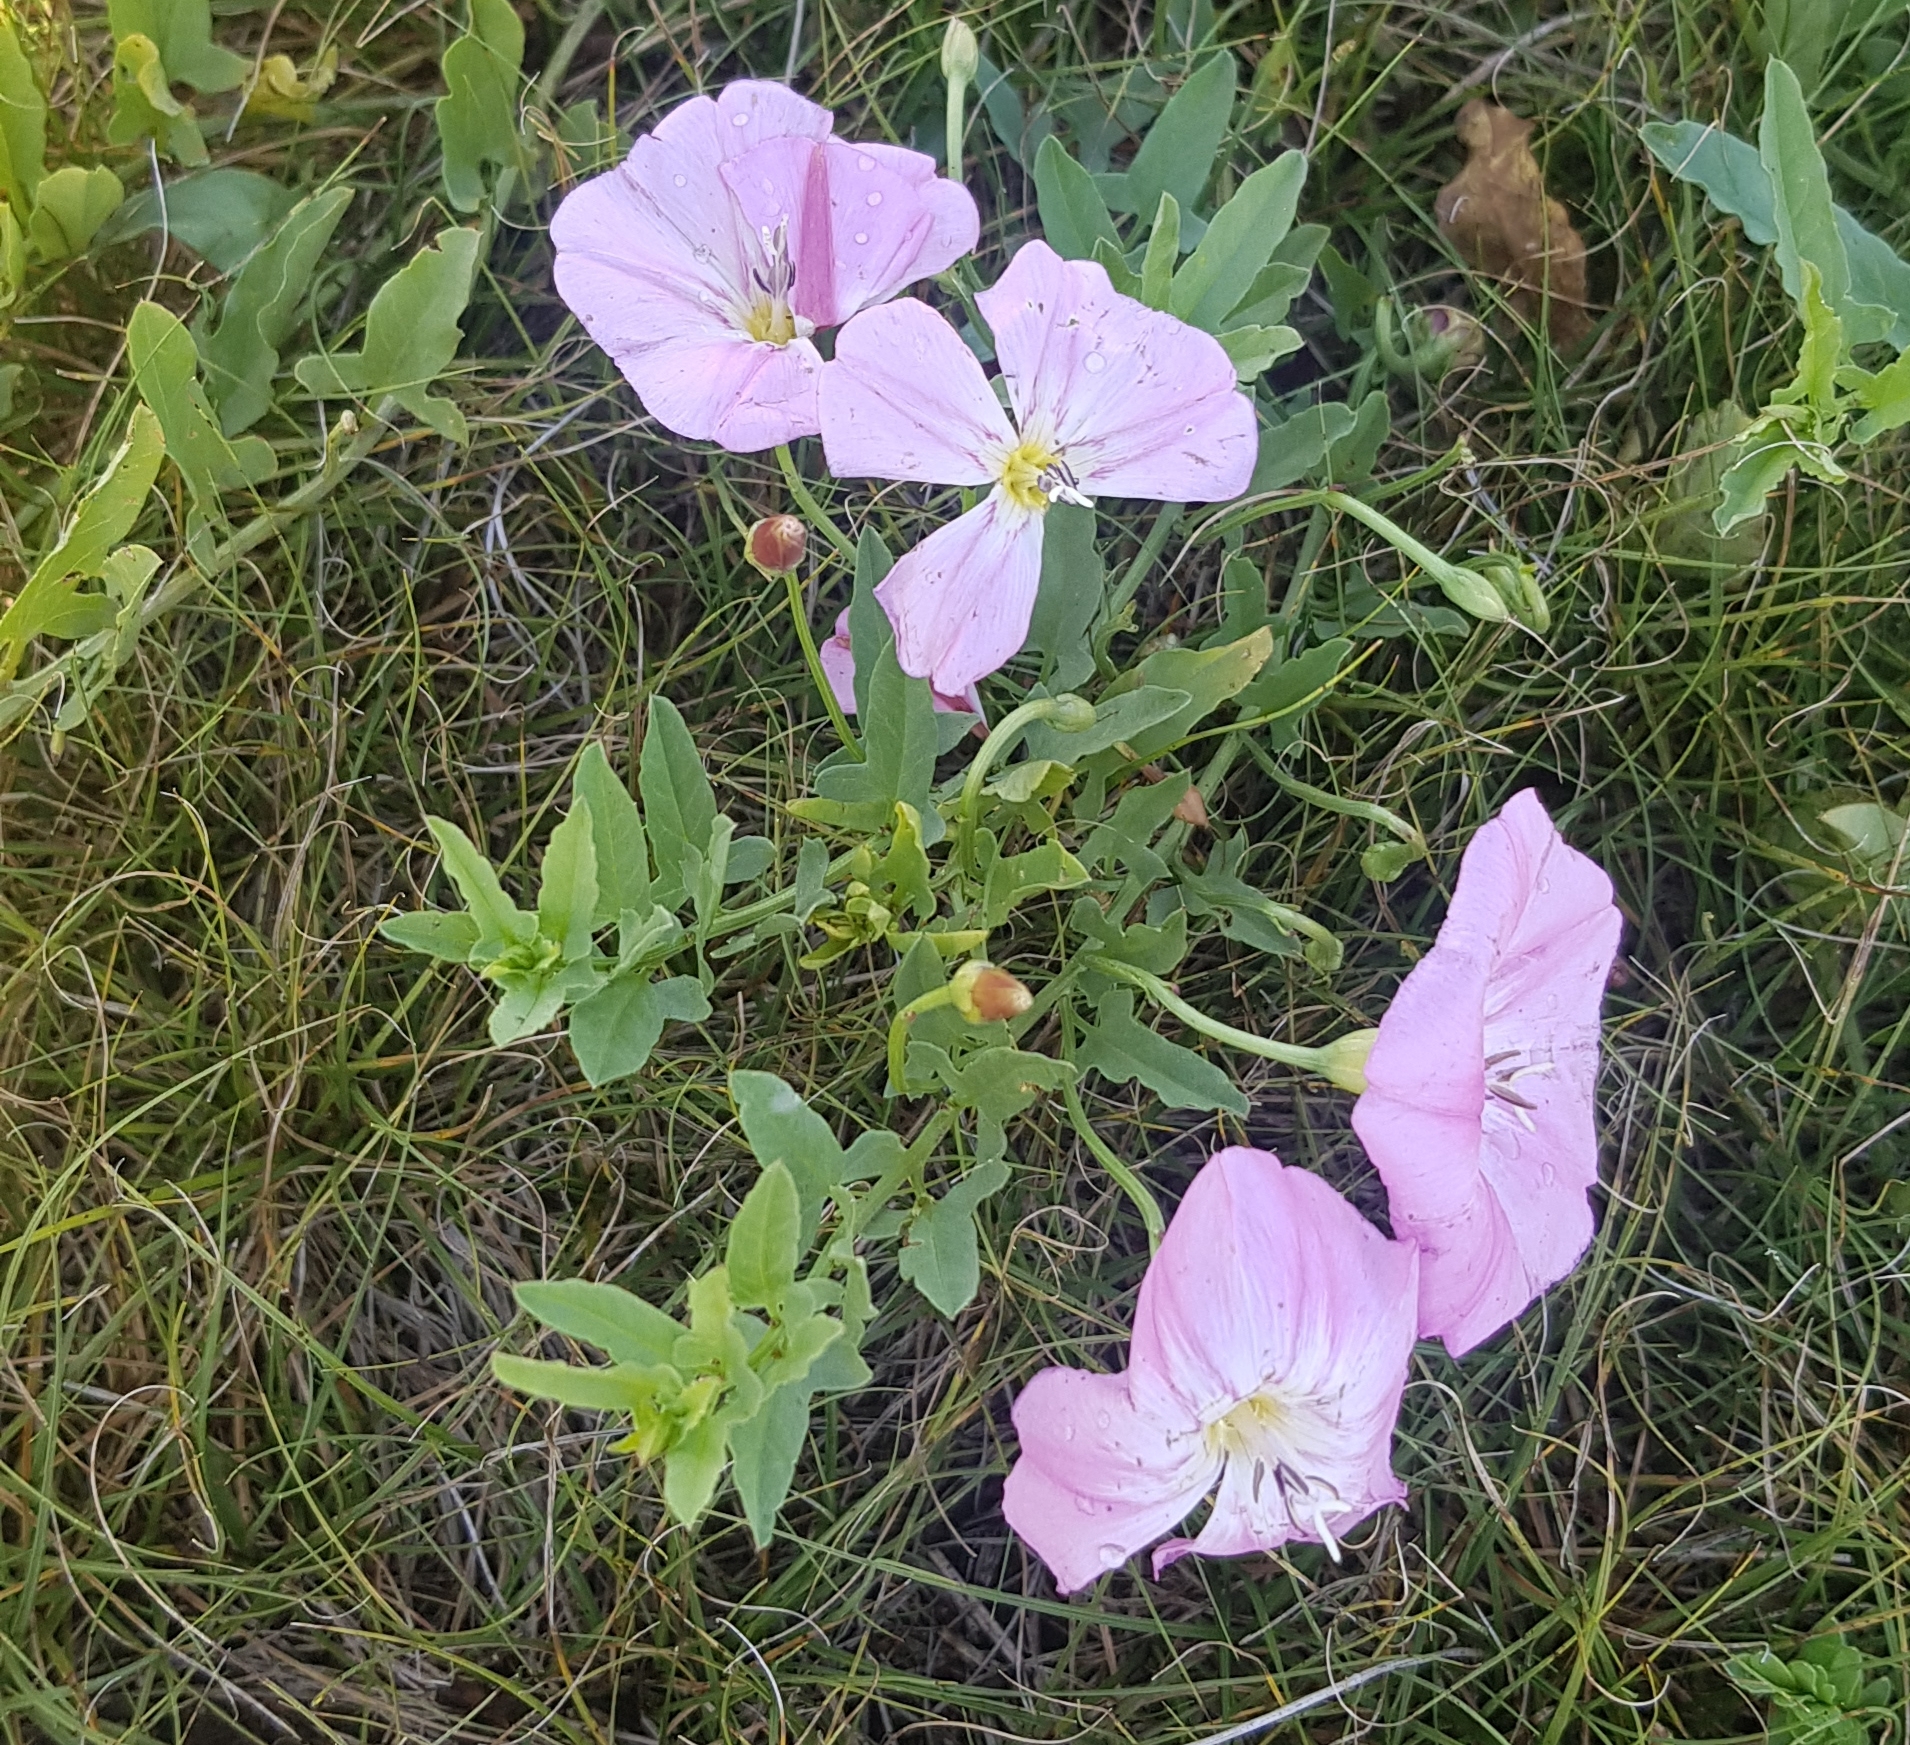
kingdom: Plantae
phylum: Tracheophyta
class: Magnoliopsida
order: Solanales
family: Convolvulaceae
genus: Convolvulus
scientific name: Convolvulus arvensis
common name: Field bindweed
